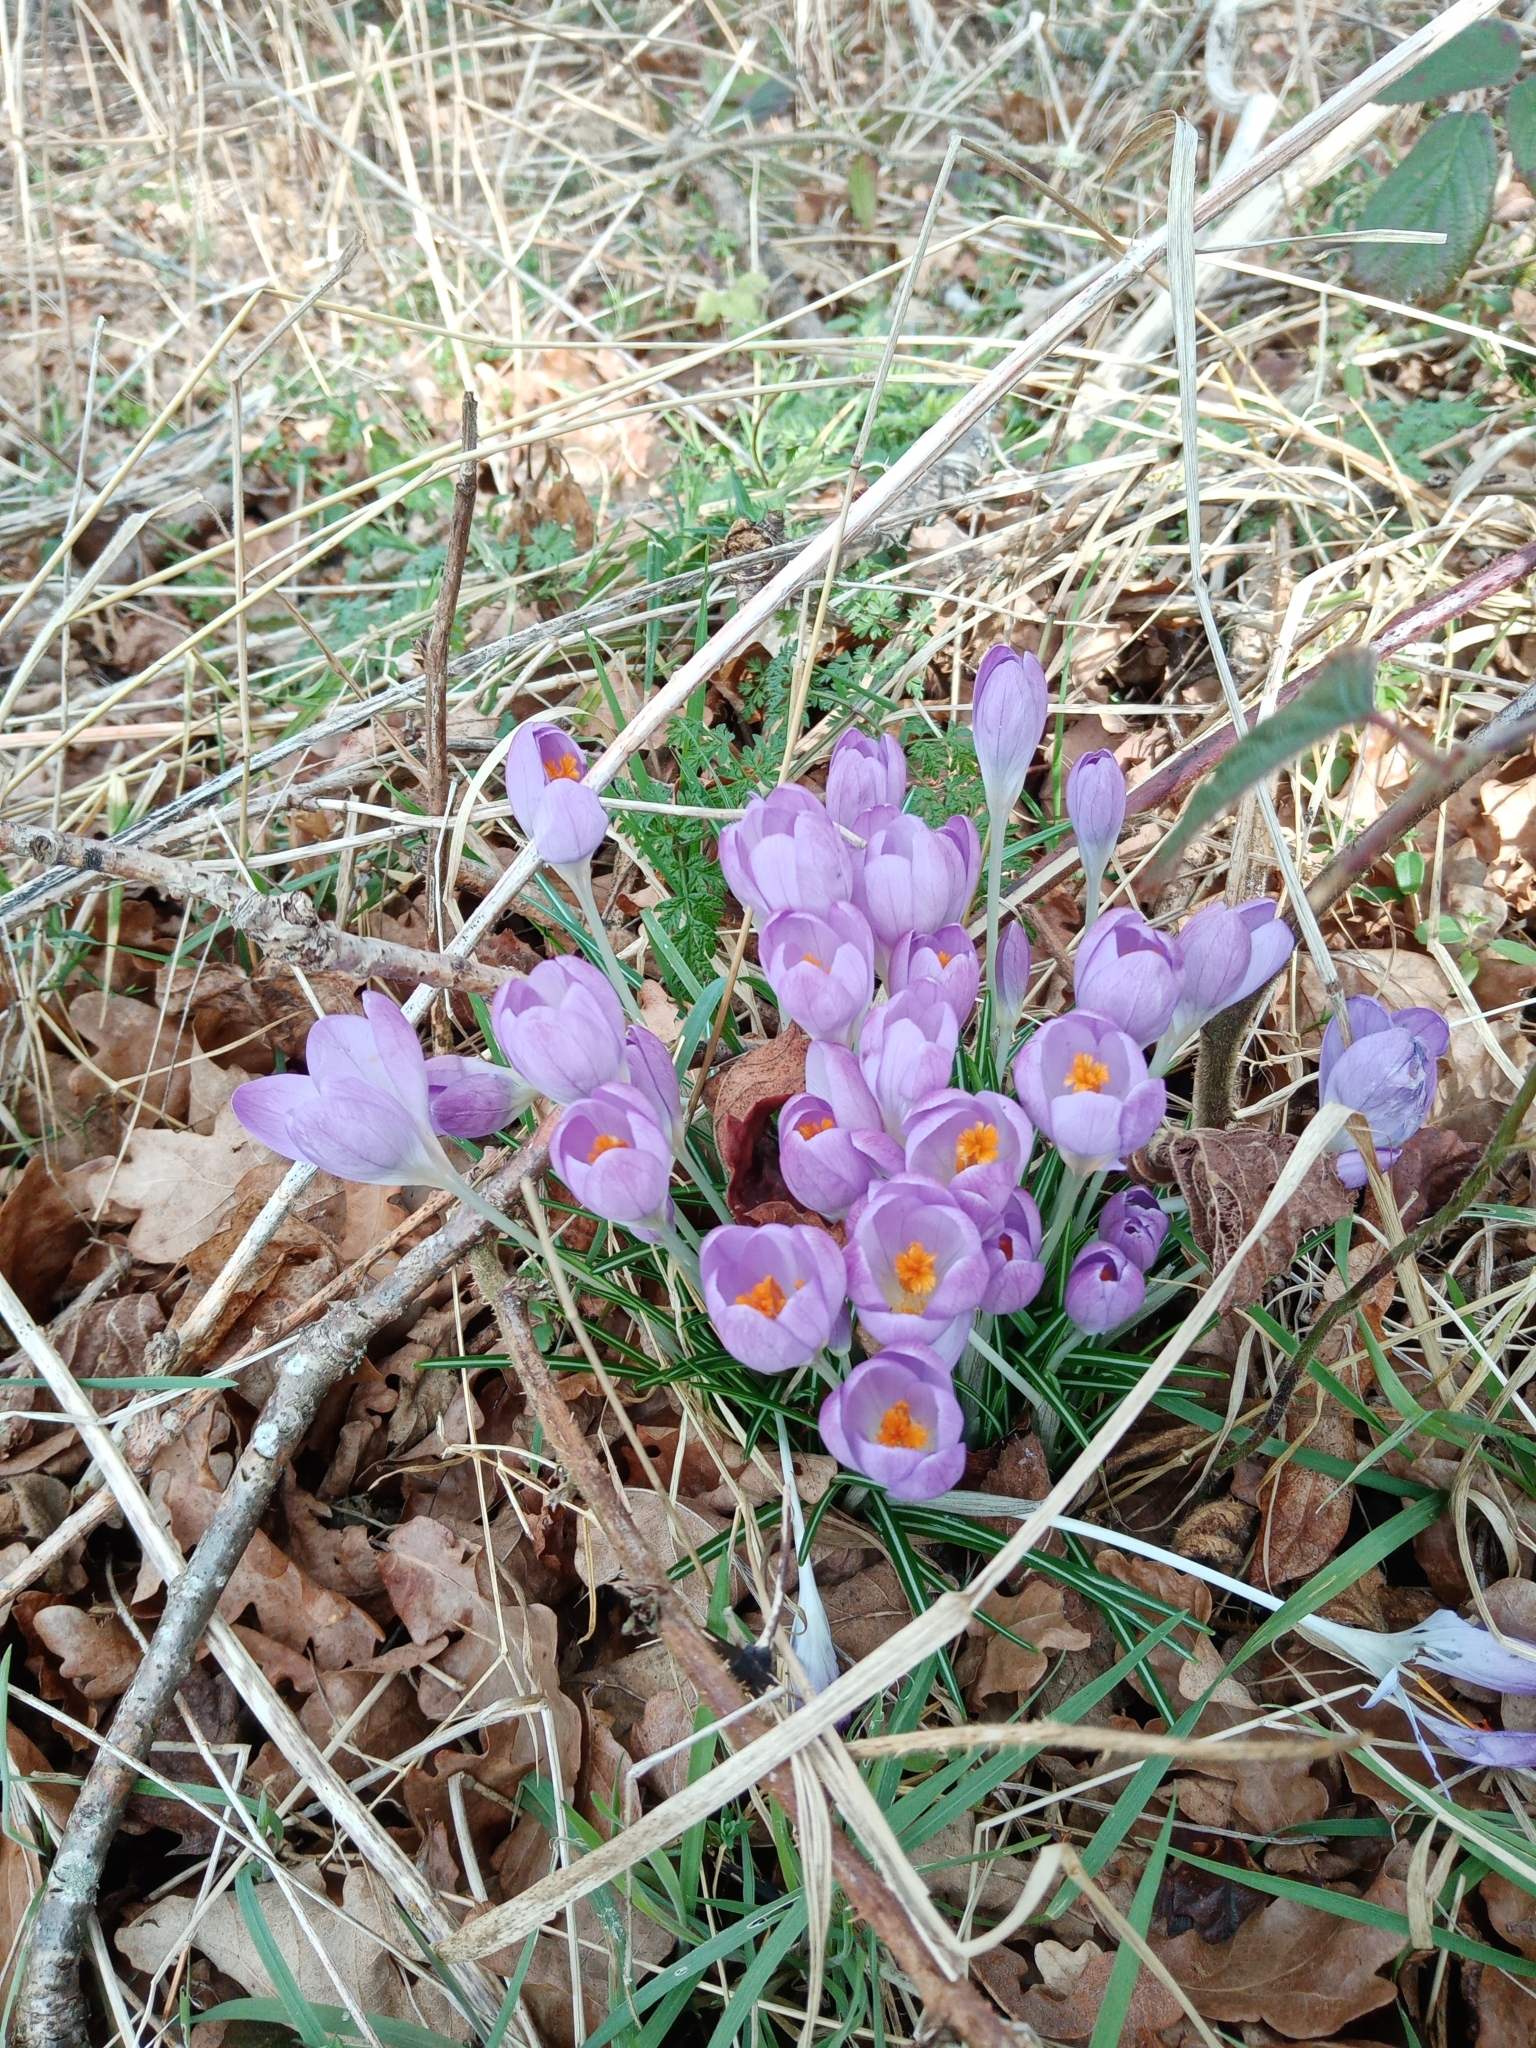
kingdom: Plantae
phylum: Tracheophyta
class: Liliopsida
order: Asparagales
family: Iridaceae
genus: Crocus
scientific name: Crocus tommasinianus
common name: Early crocus
